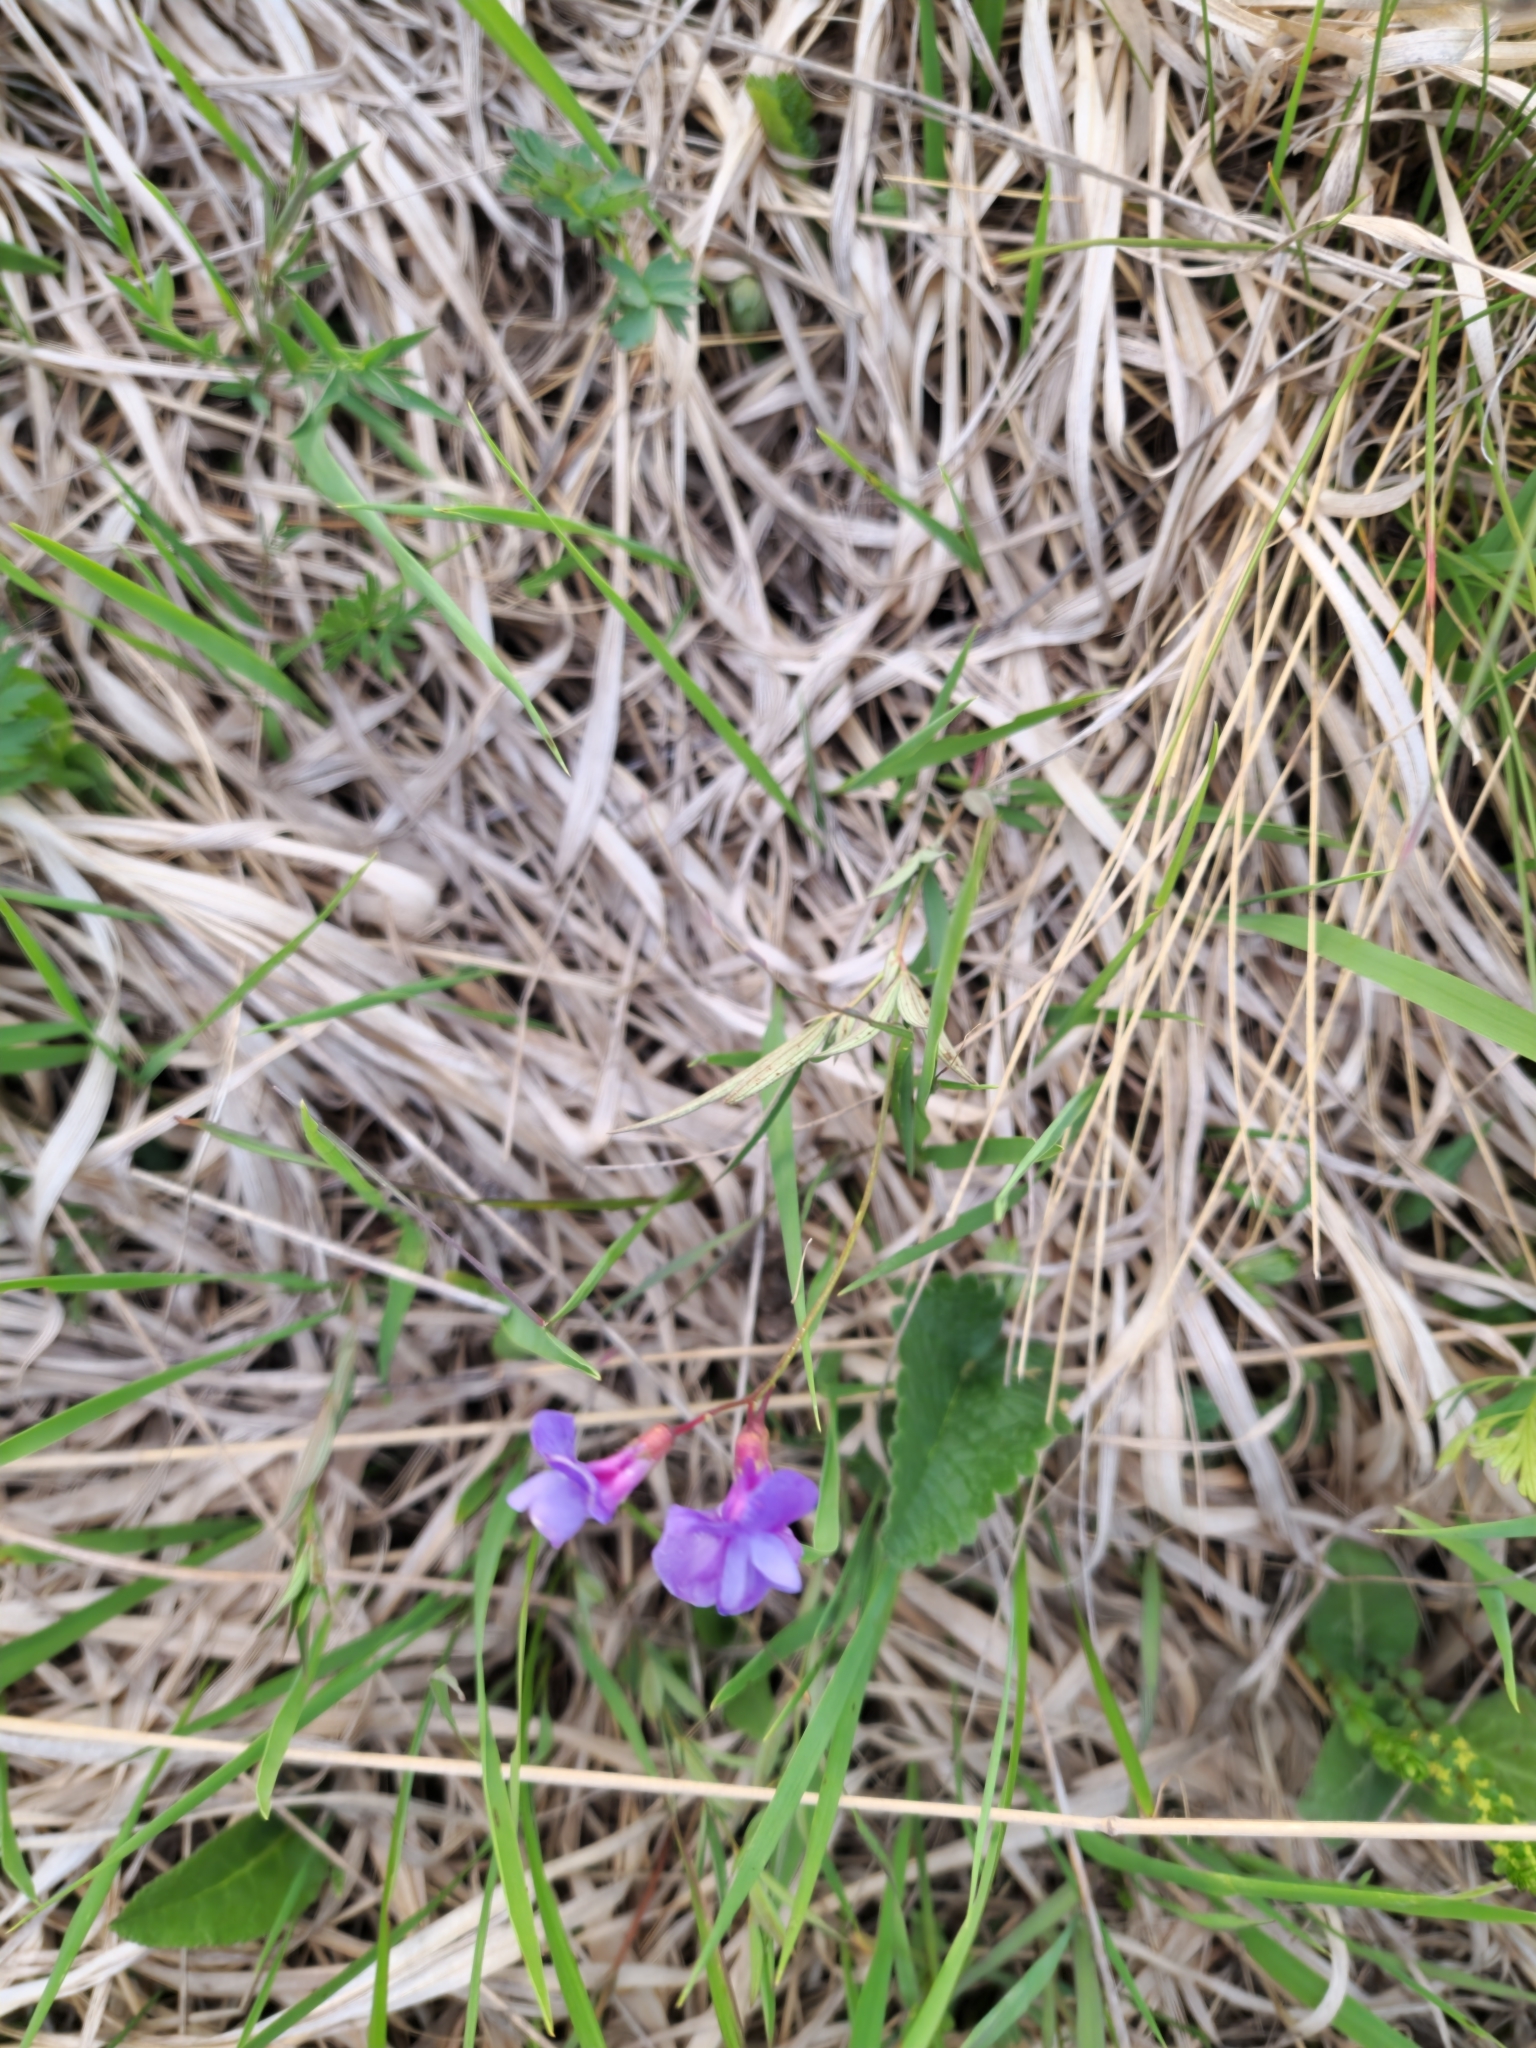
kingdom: Plantae
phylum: Tracheophyta
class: Magnoliopsida
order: Fabales
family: Fabaceae
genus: Lathyrus
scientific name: Lathyrus cyaneus
